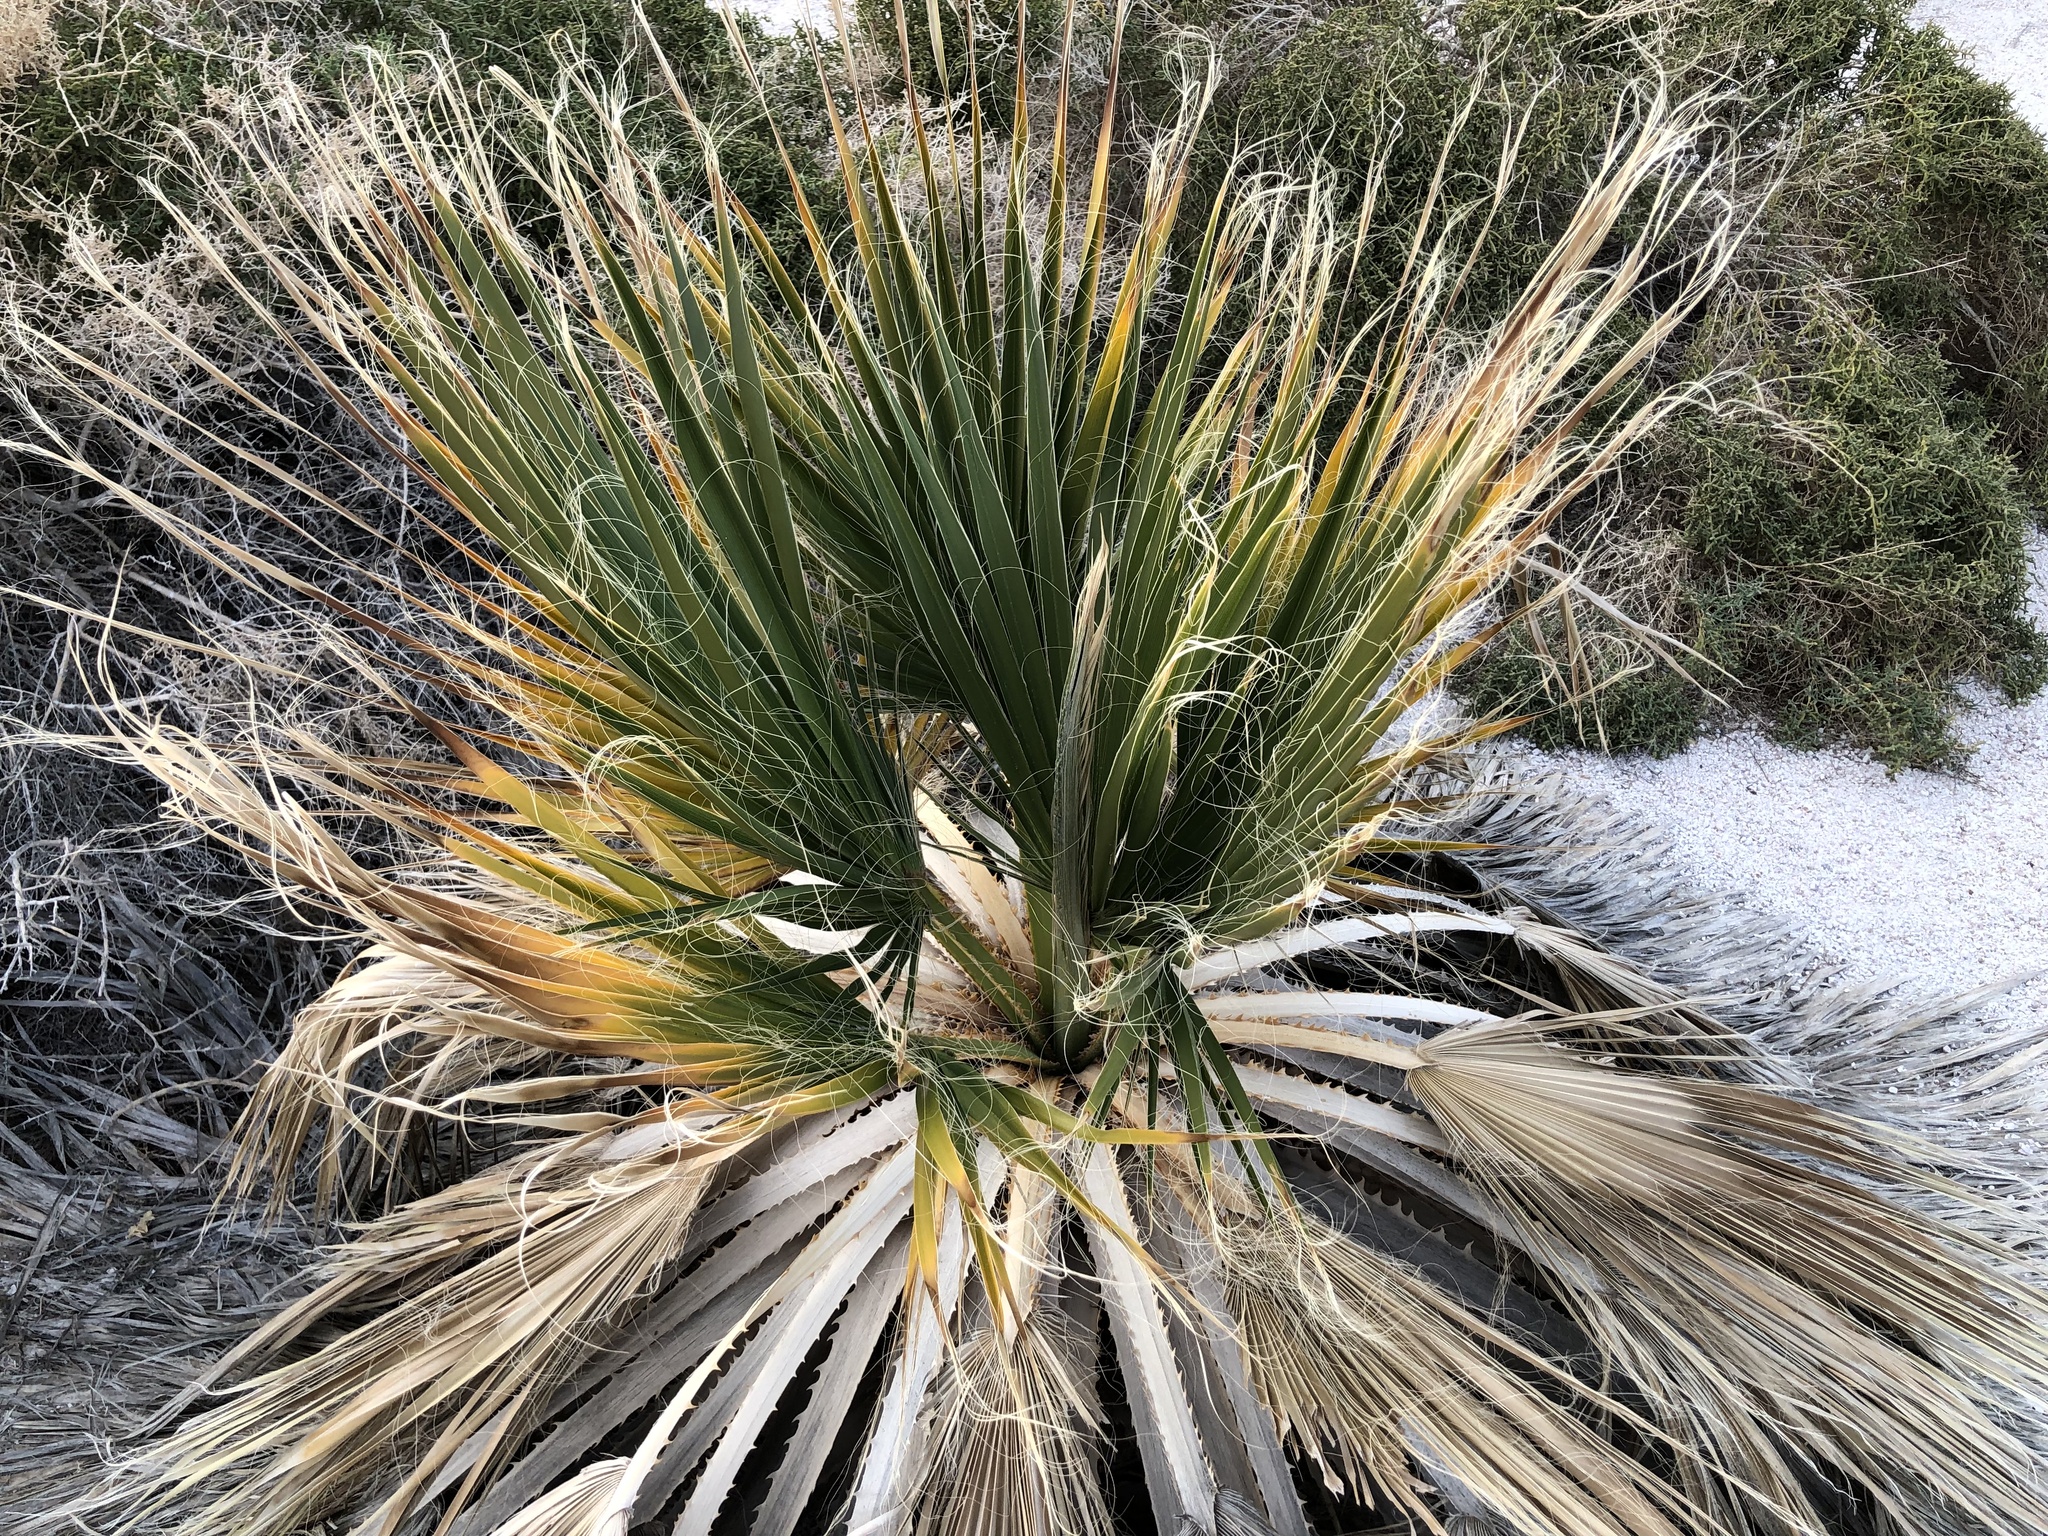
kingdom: Plantae
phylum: Tracheophyta
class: Liliopsida
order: Arecales
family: Arecaceae
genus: Washingtonia
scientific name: Washingtonia filifera
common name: California fan palm
